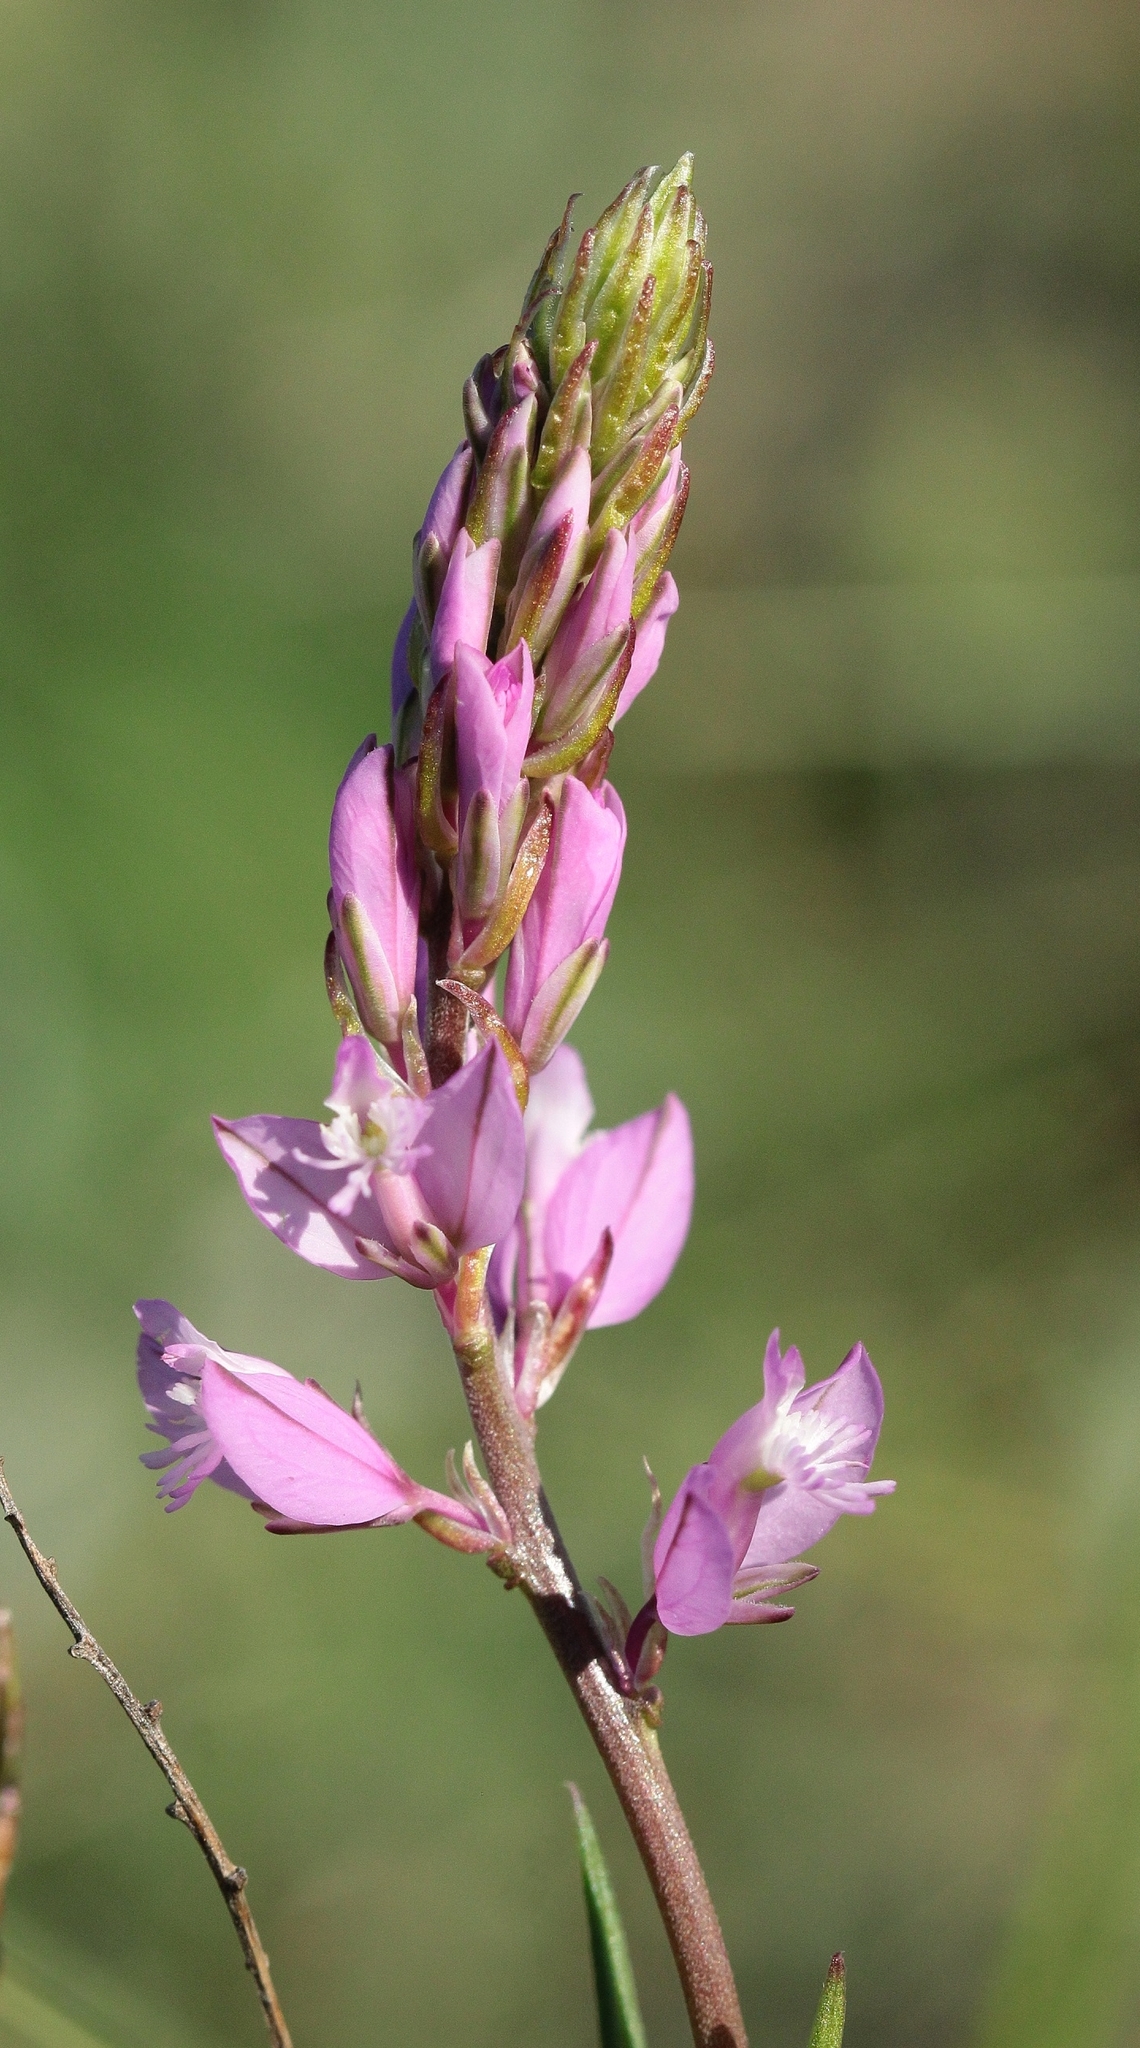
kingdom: Plantae
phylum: Tracheophyta
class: Magnoliopsida
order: Fabales
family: Polygalaceae
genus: Polygala
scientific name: Polygala nicaeensis
